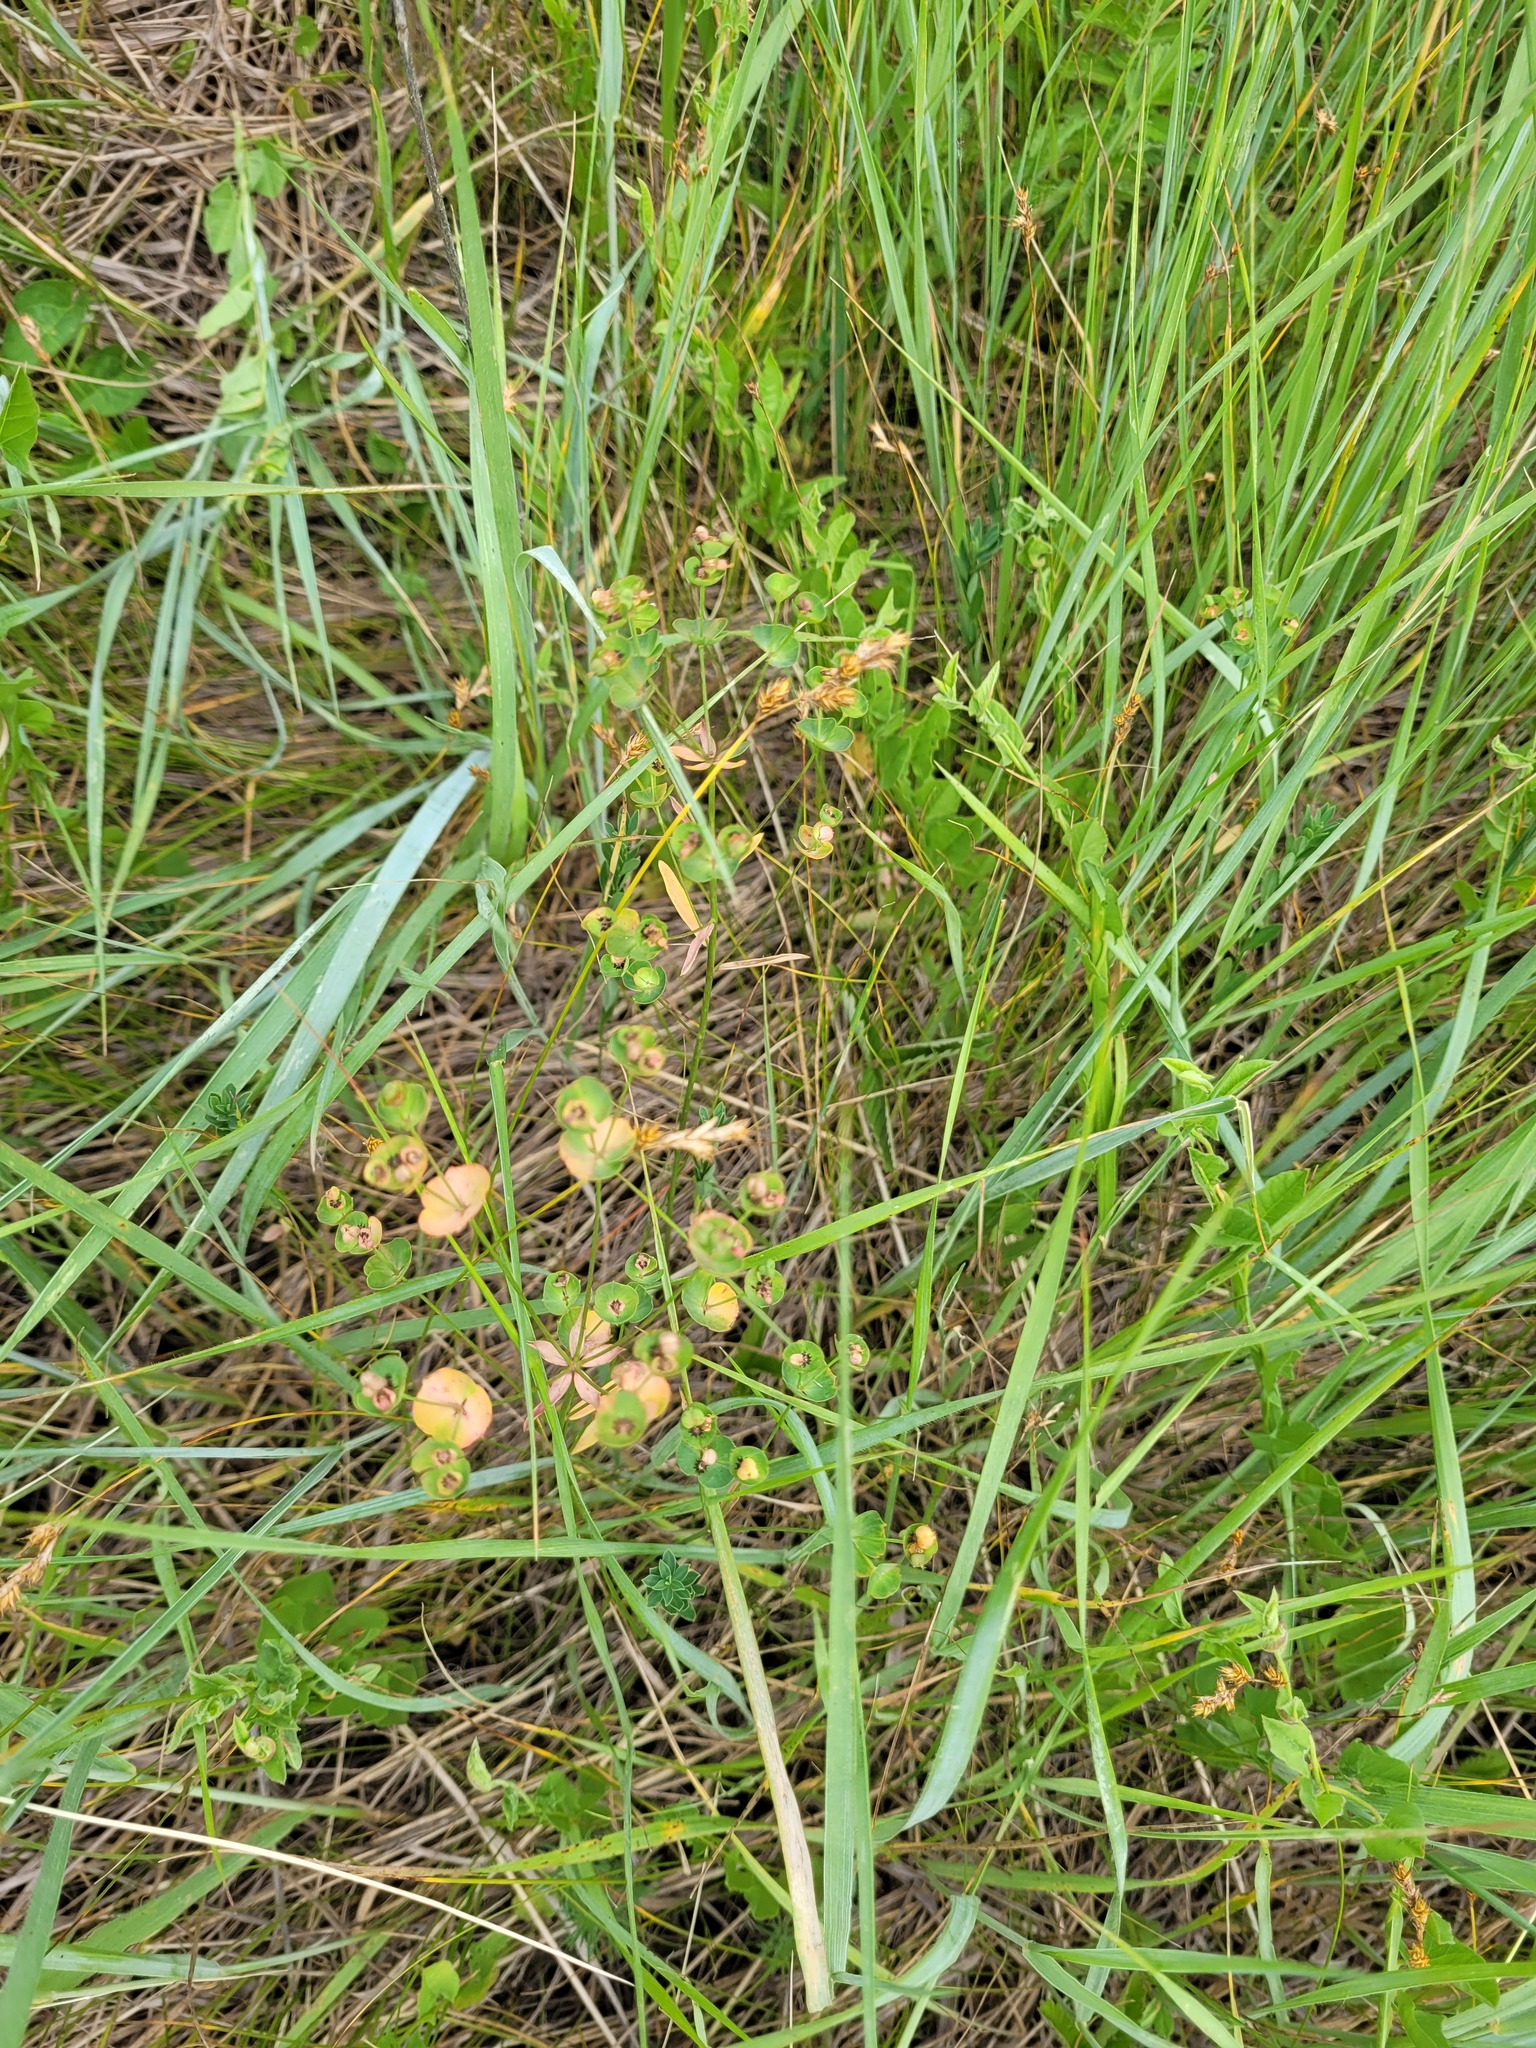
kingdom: Plantae
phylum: Tracheophyta
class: Magnoliopsida
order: Malpighiales
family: Euphorbiaceae
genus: Euphorbia
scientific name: Euphorbia microcarpa
